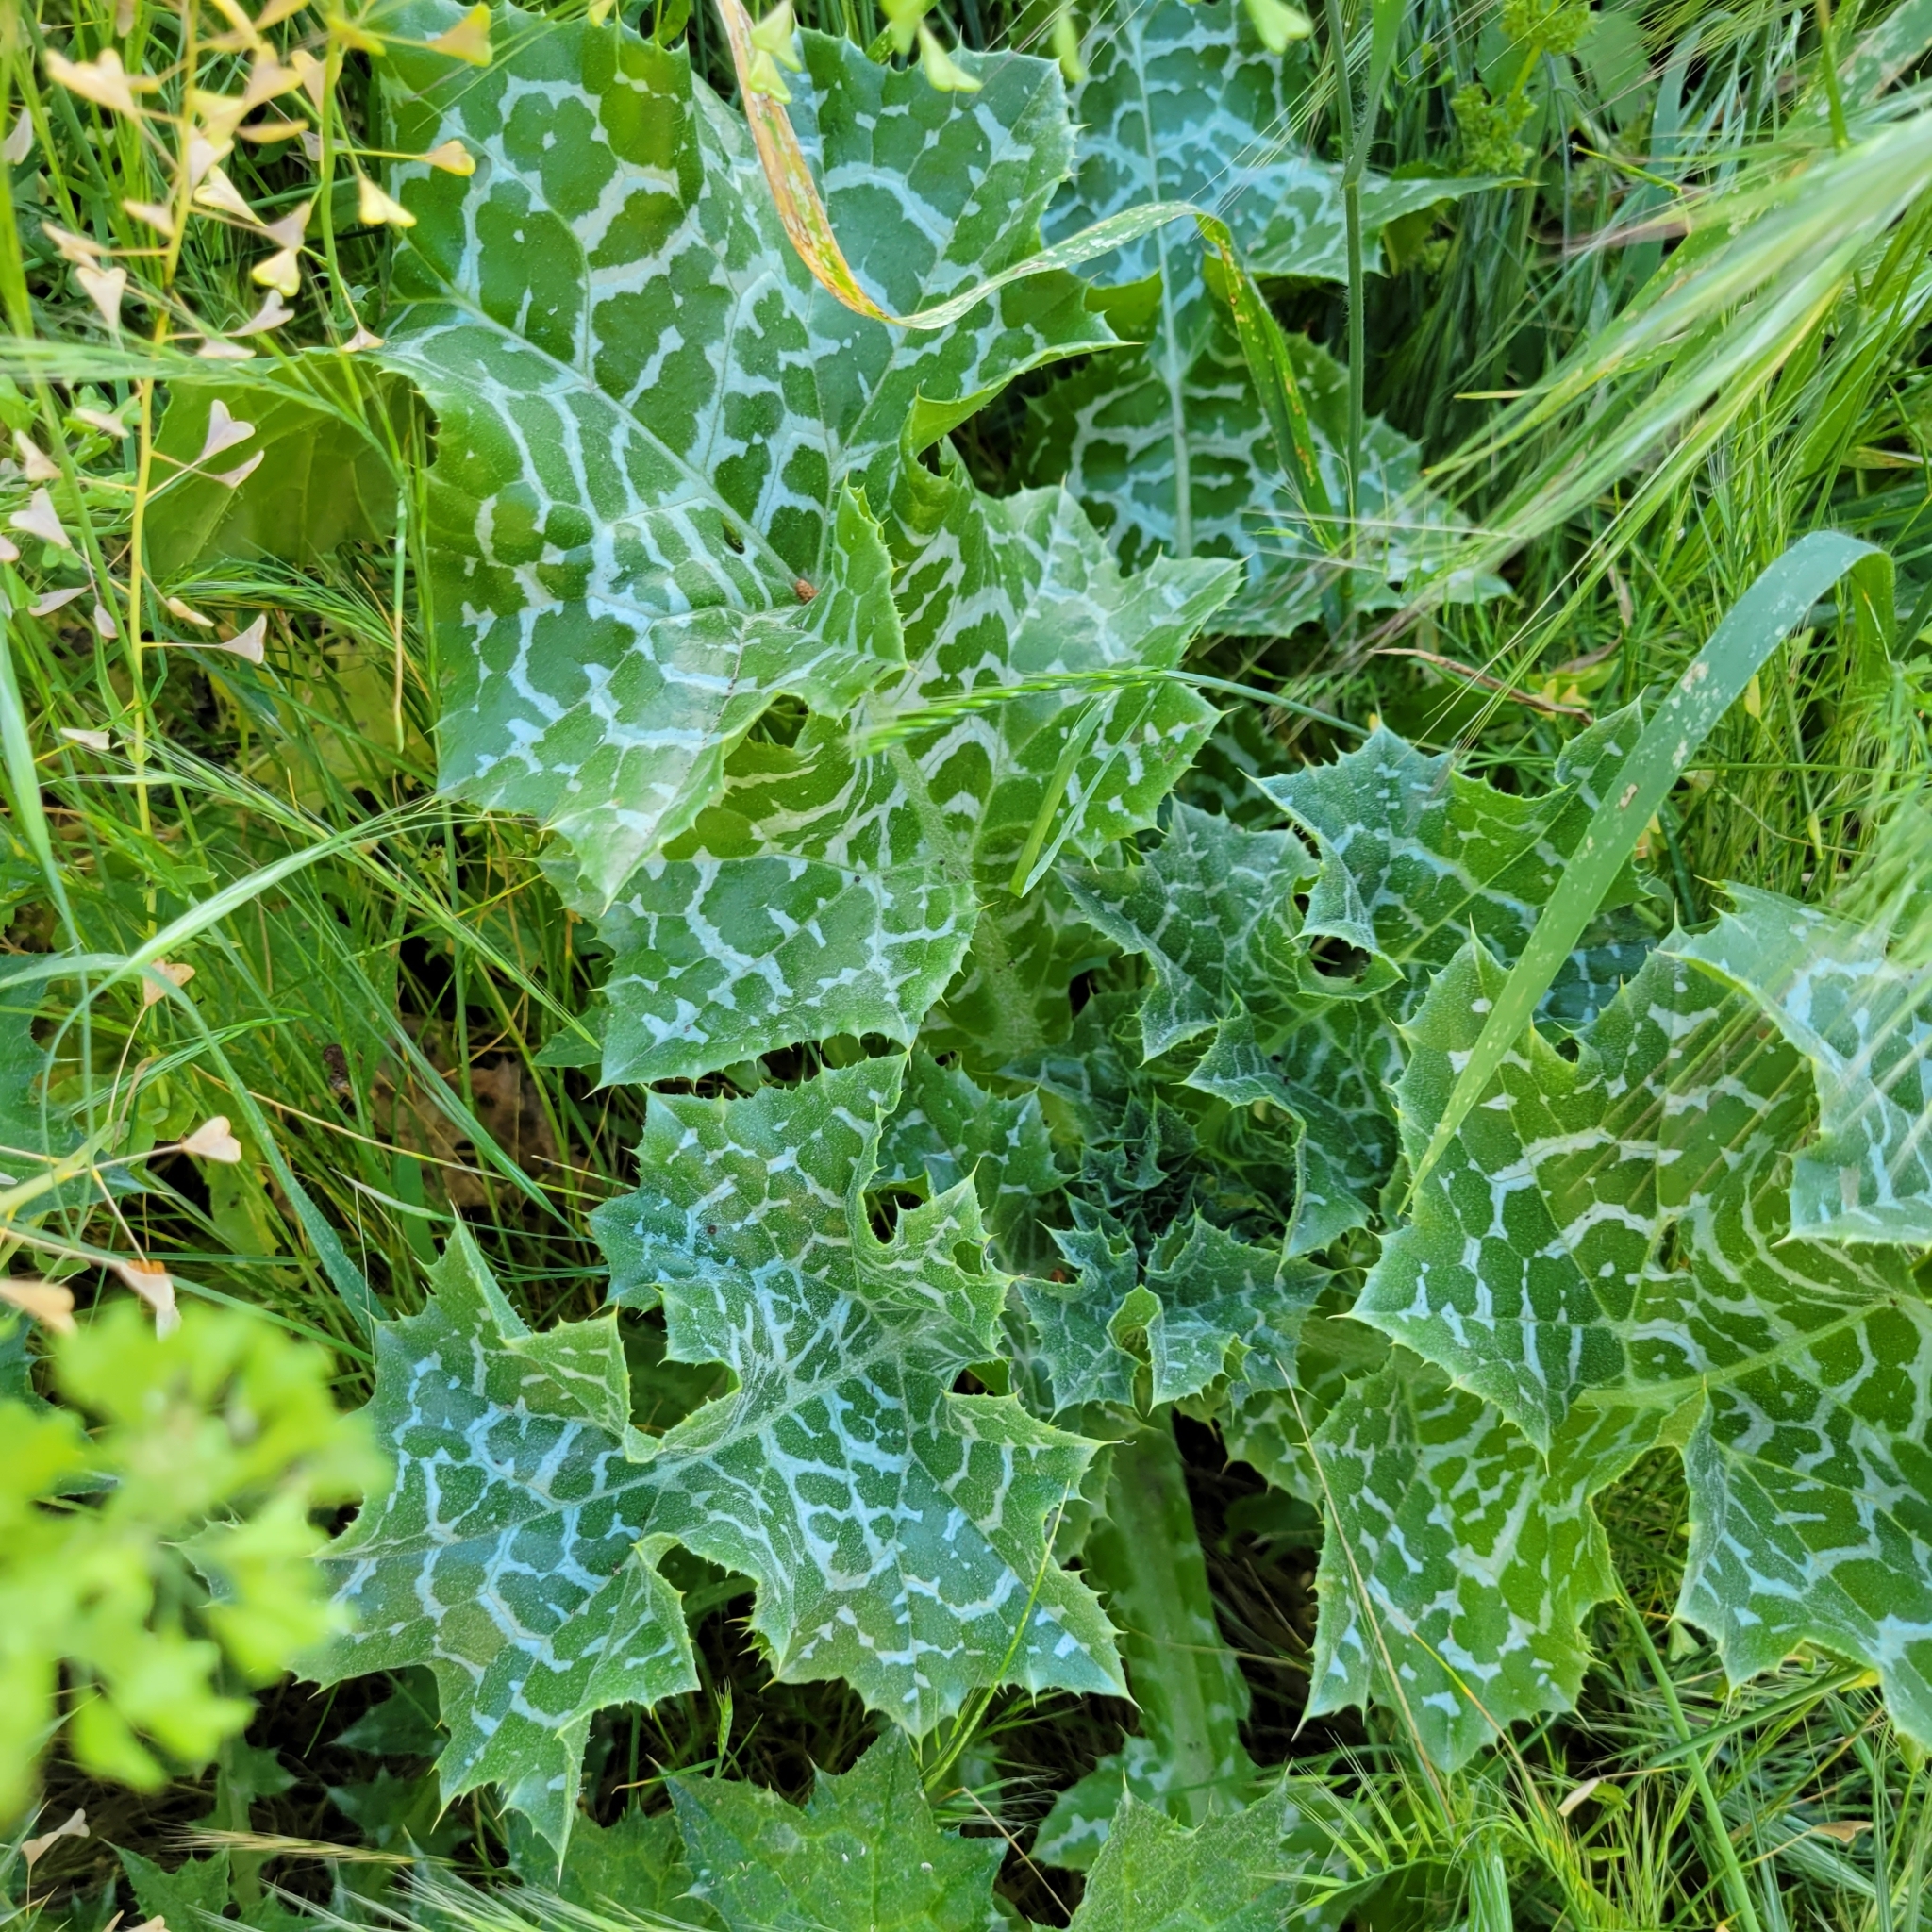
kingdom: Plantae
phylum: Tracheophyta
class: Magnoliopsida
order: Asterales
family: Asteraceae
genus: Silybum
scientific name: Silybum marianum
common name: Milk thistle
